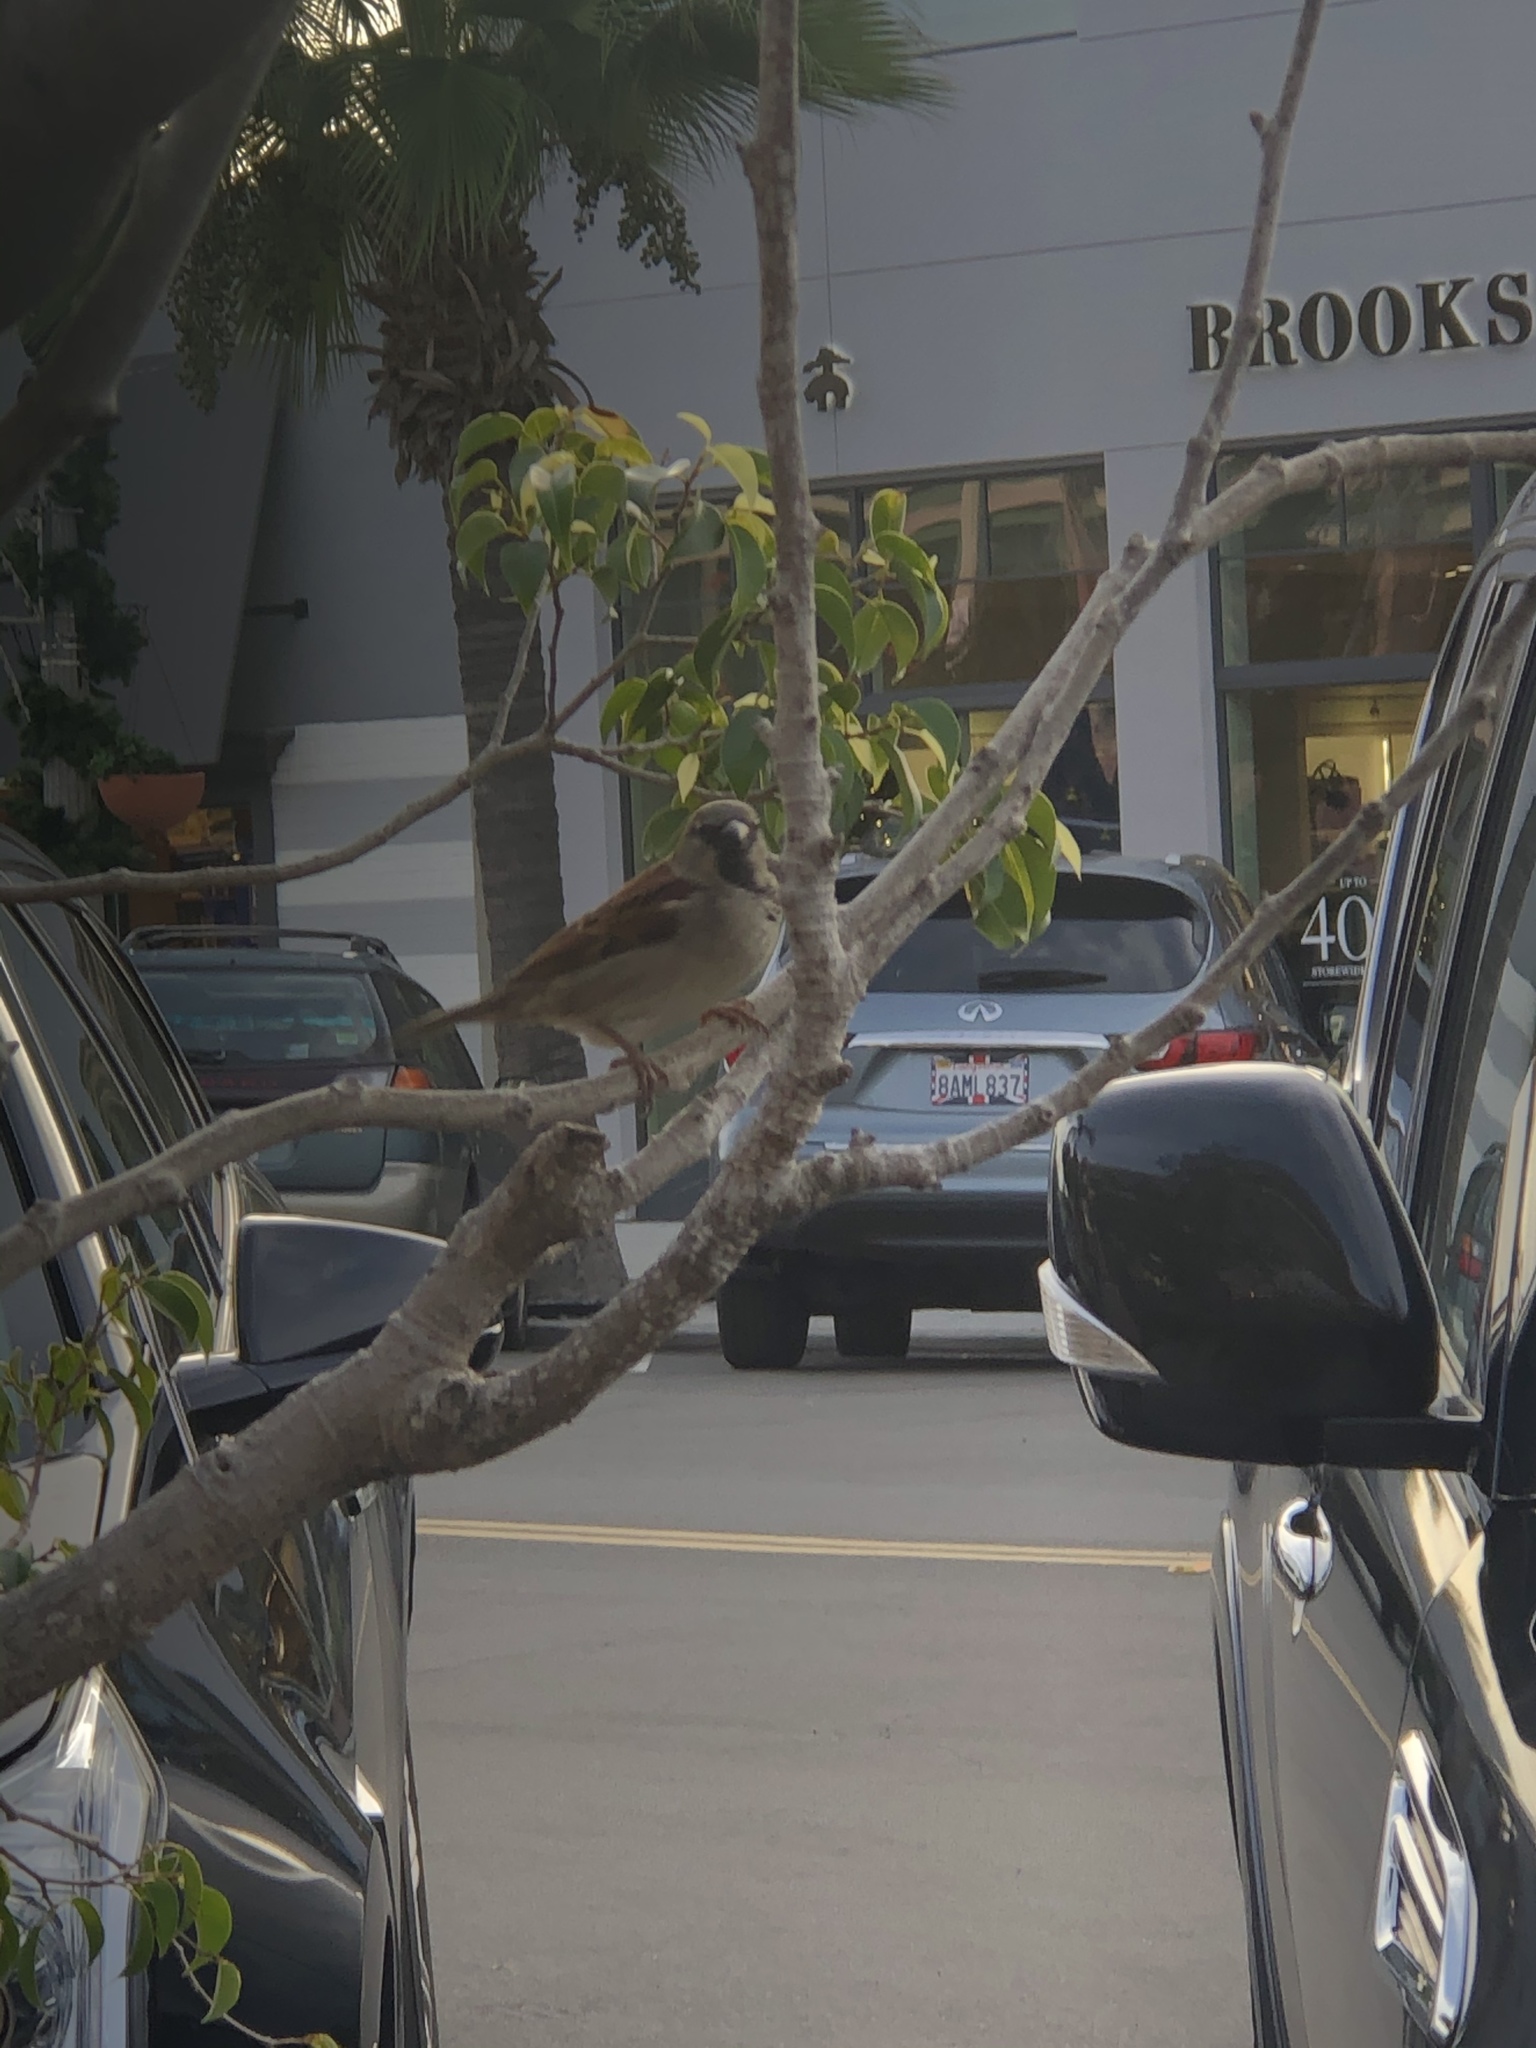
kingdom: Animalia
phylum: Chordata
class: Aves
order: Passeriformes
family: Passeridae
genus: Passer
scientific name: Passer domesticus
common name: House sparrow
